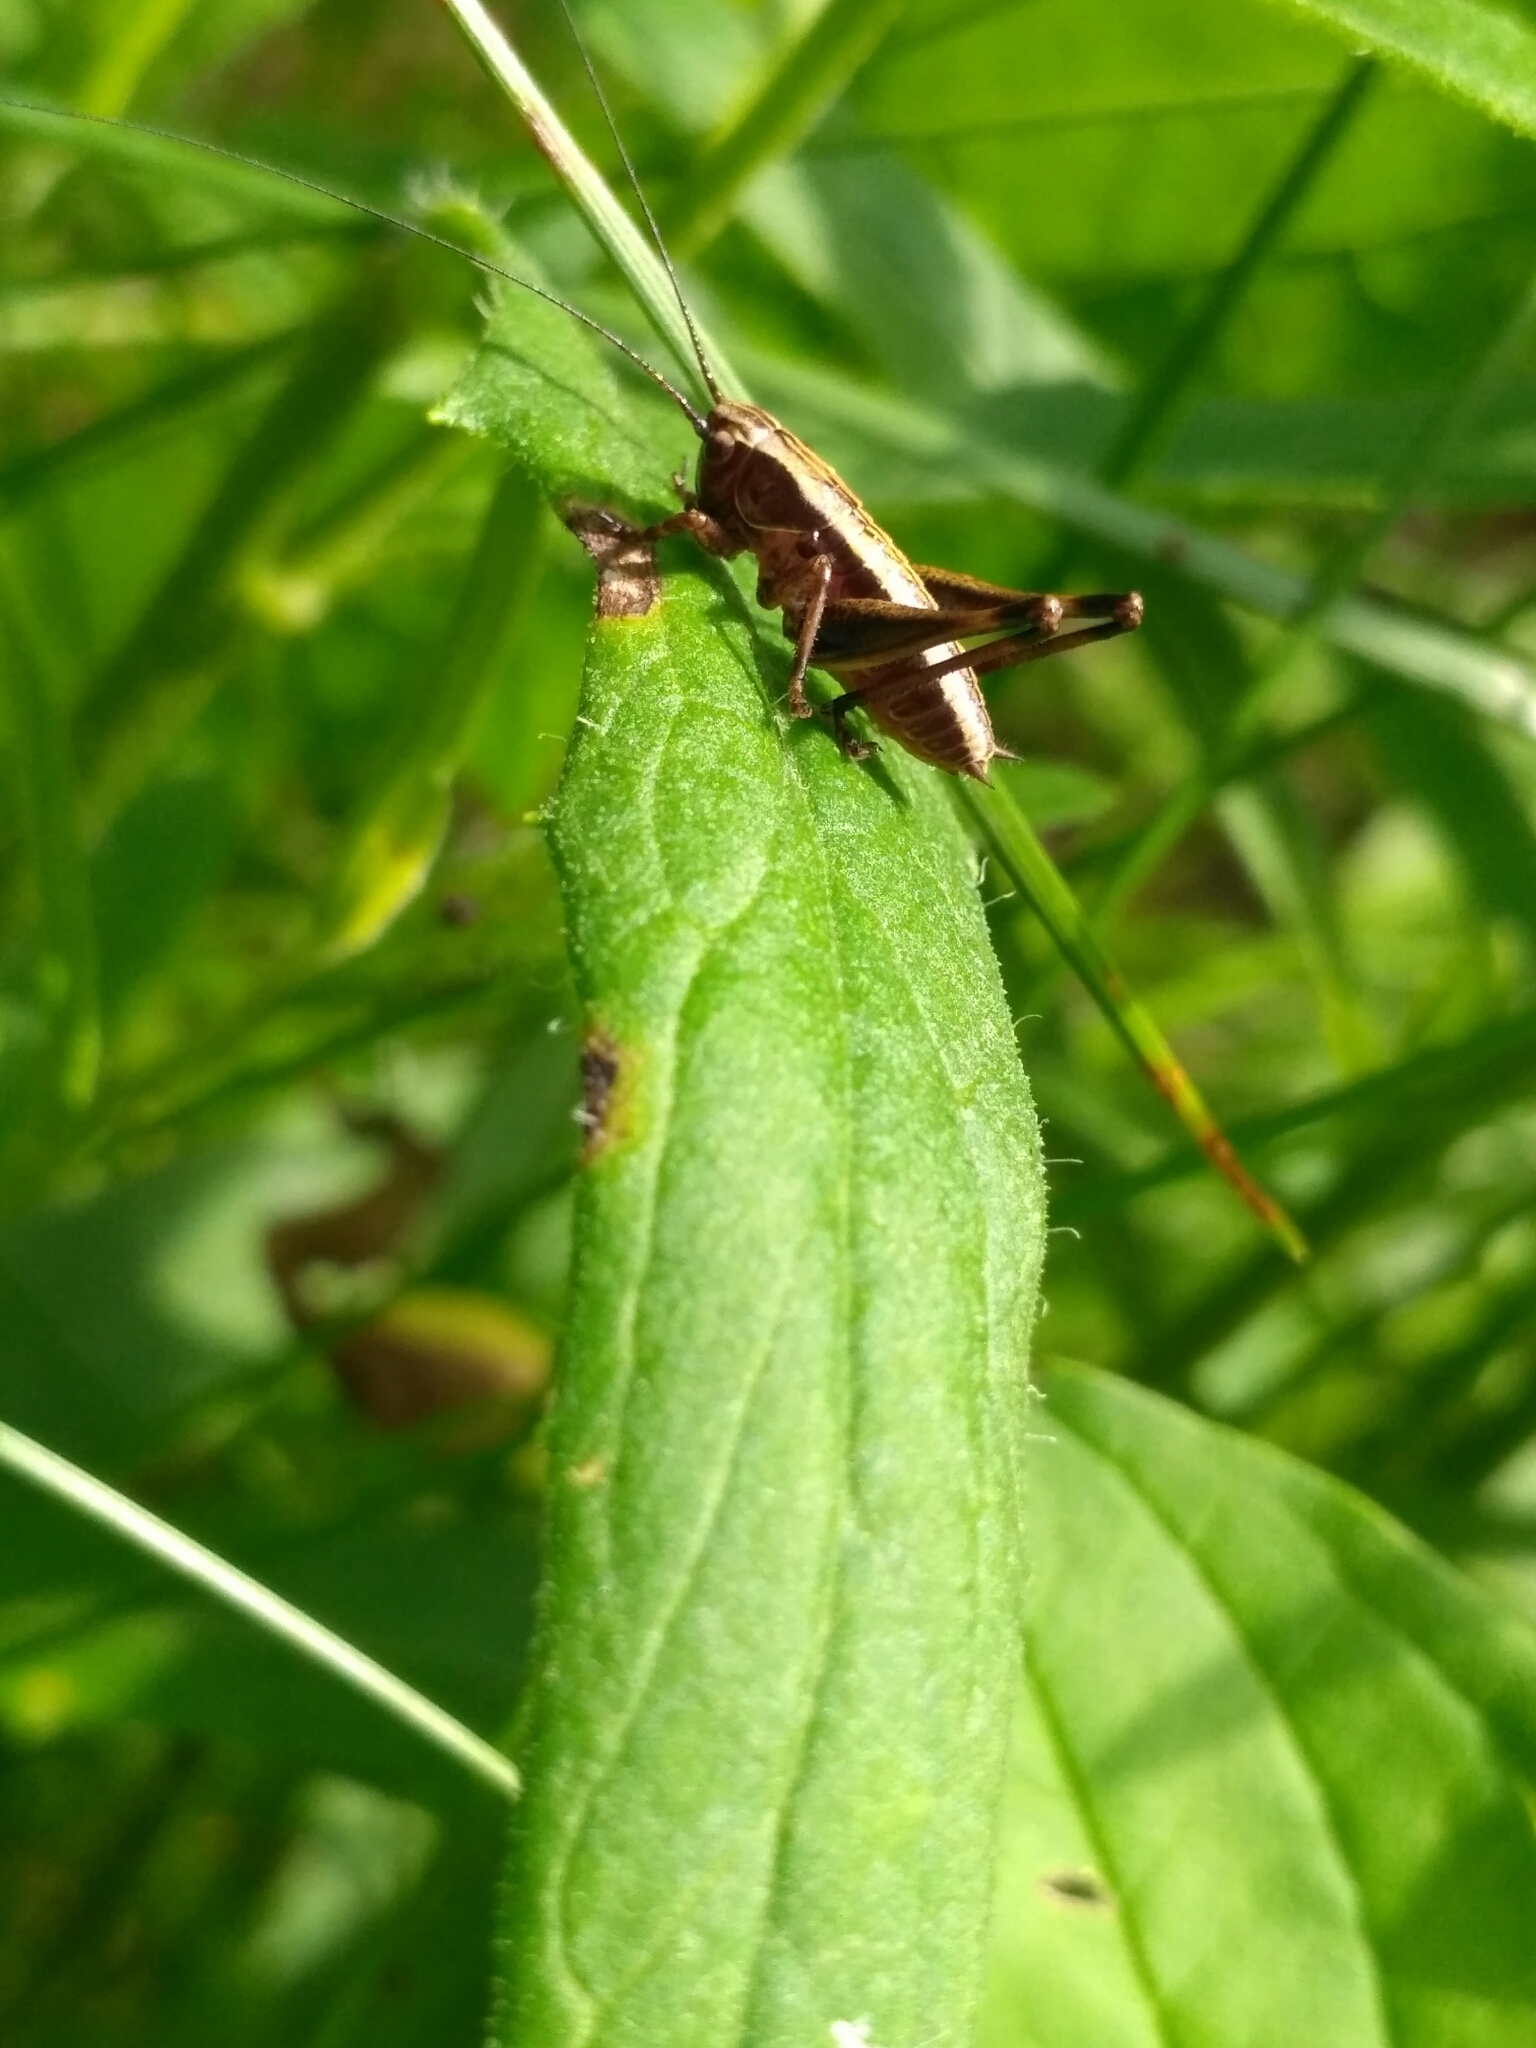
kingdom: Animalia
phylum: Arthropoda
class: Insecta
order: Orthoptera
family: Tettigoniidae
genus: Pholidoptera
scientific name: Pholidoptera griseoaptera
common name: Dark bush-cricket
